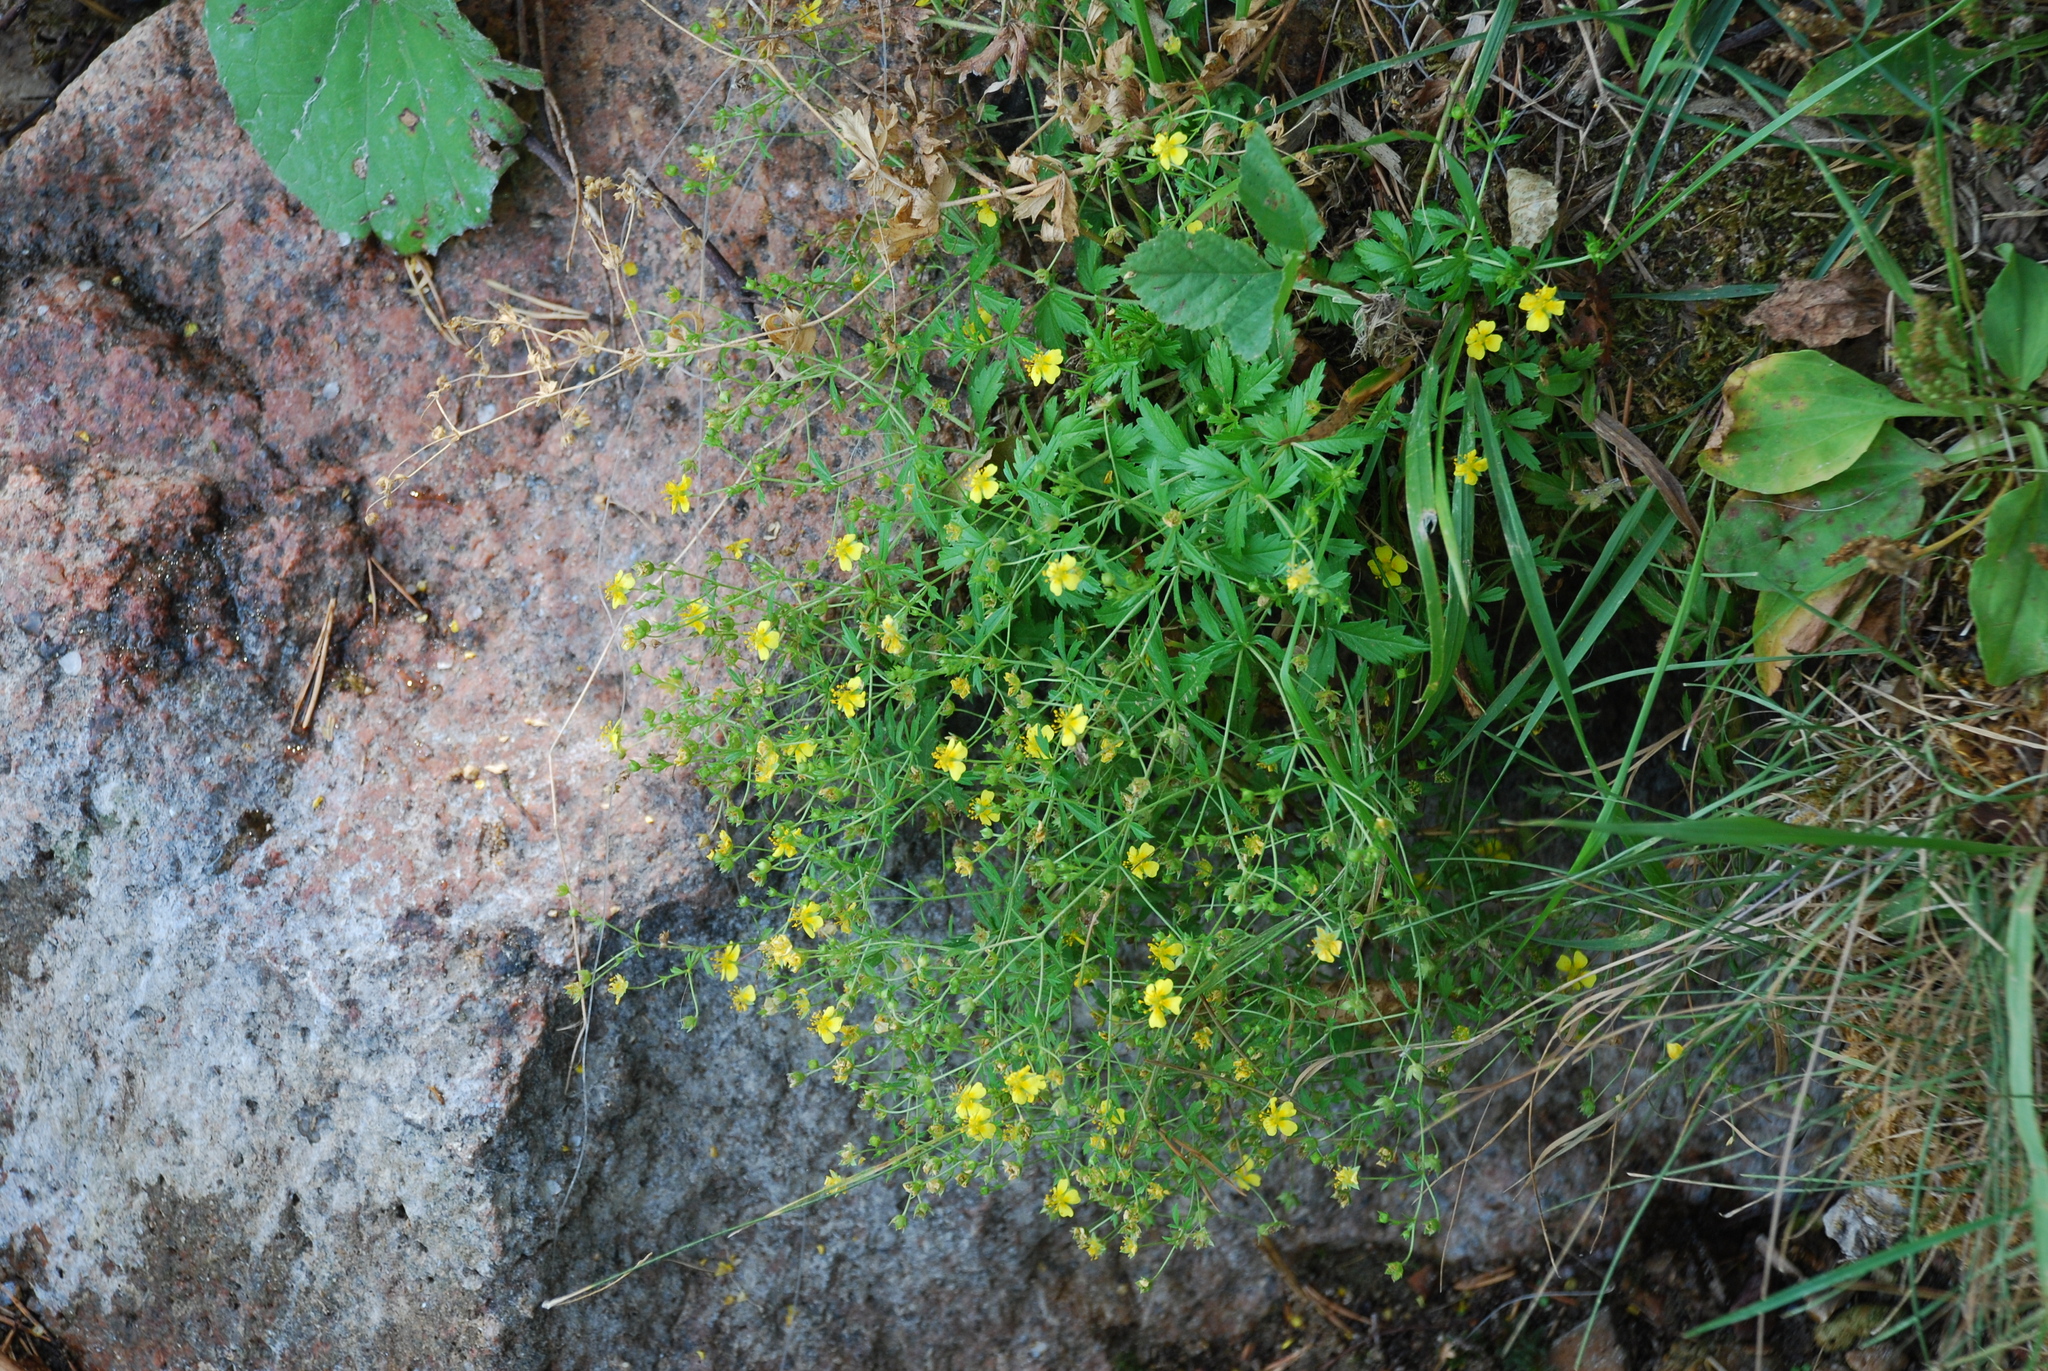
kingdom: Plantae
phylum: Tracheophyta
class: Magnoliopsida
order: Rosales
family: Rosaceae
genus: Potentilla
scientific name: Potentilla erecta
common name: Tormentil
